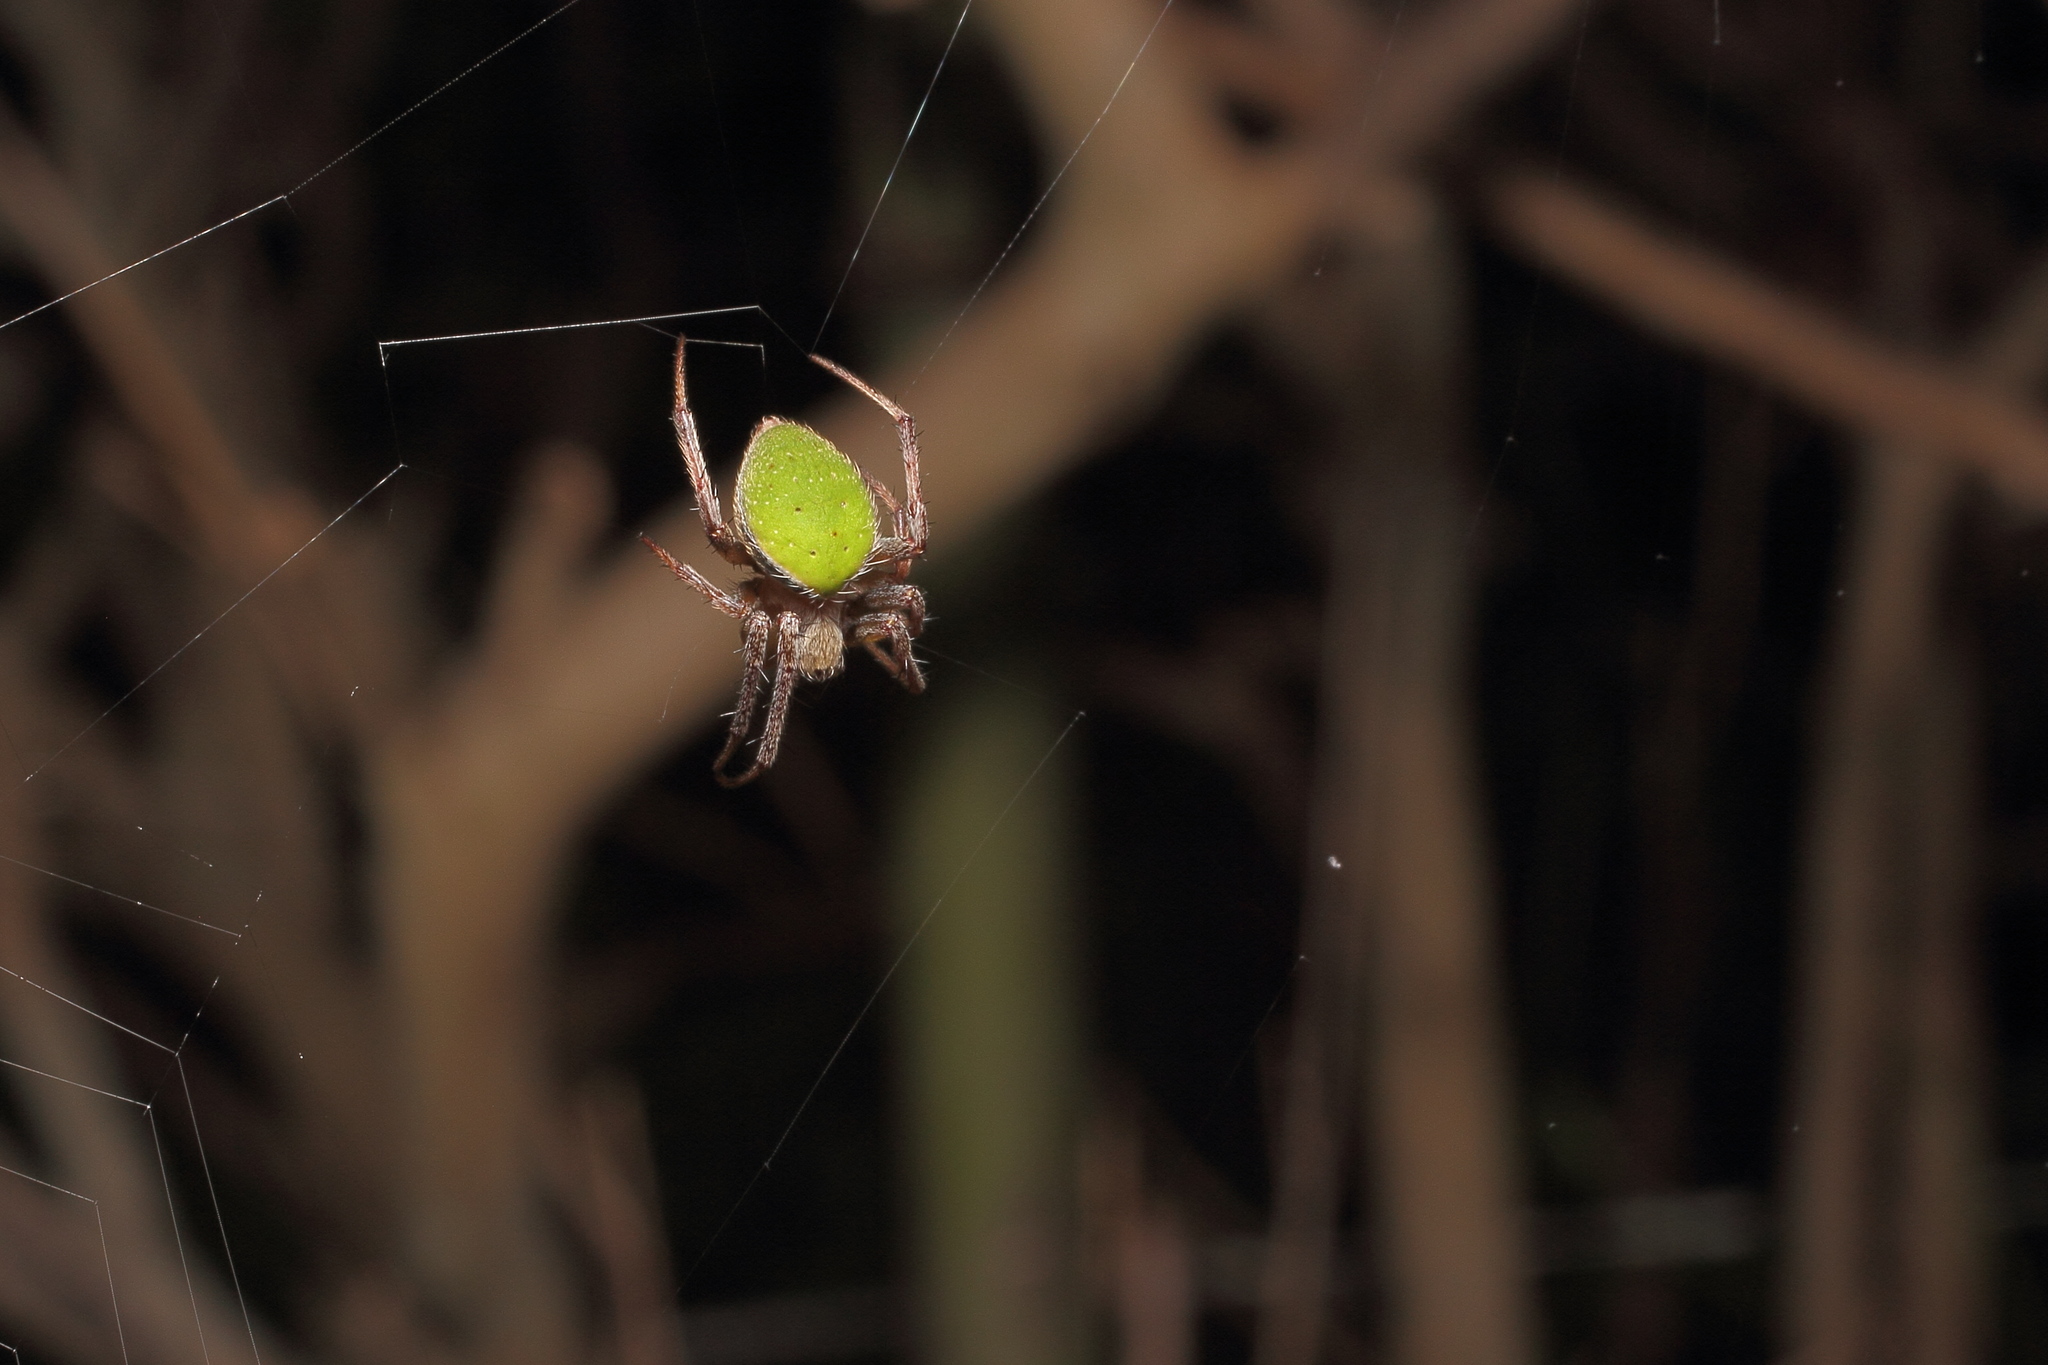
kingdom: Animalia
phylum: Arthropoda
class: Arachnida
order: Araneae
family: Araneidae
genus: Neoscona
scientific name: Neoscona mellotteei
